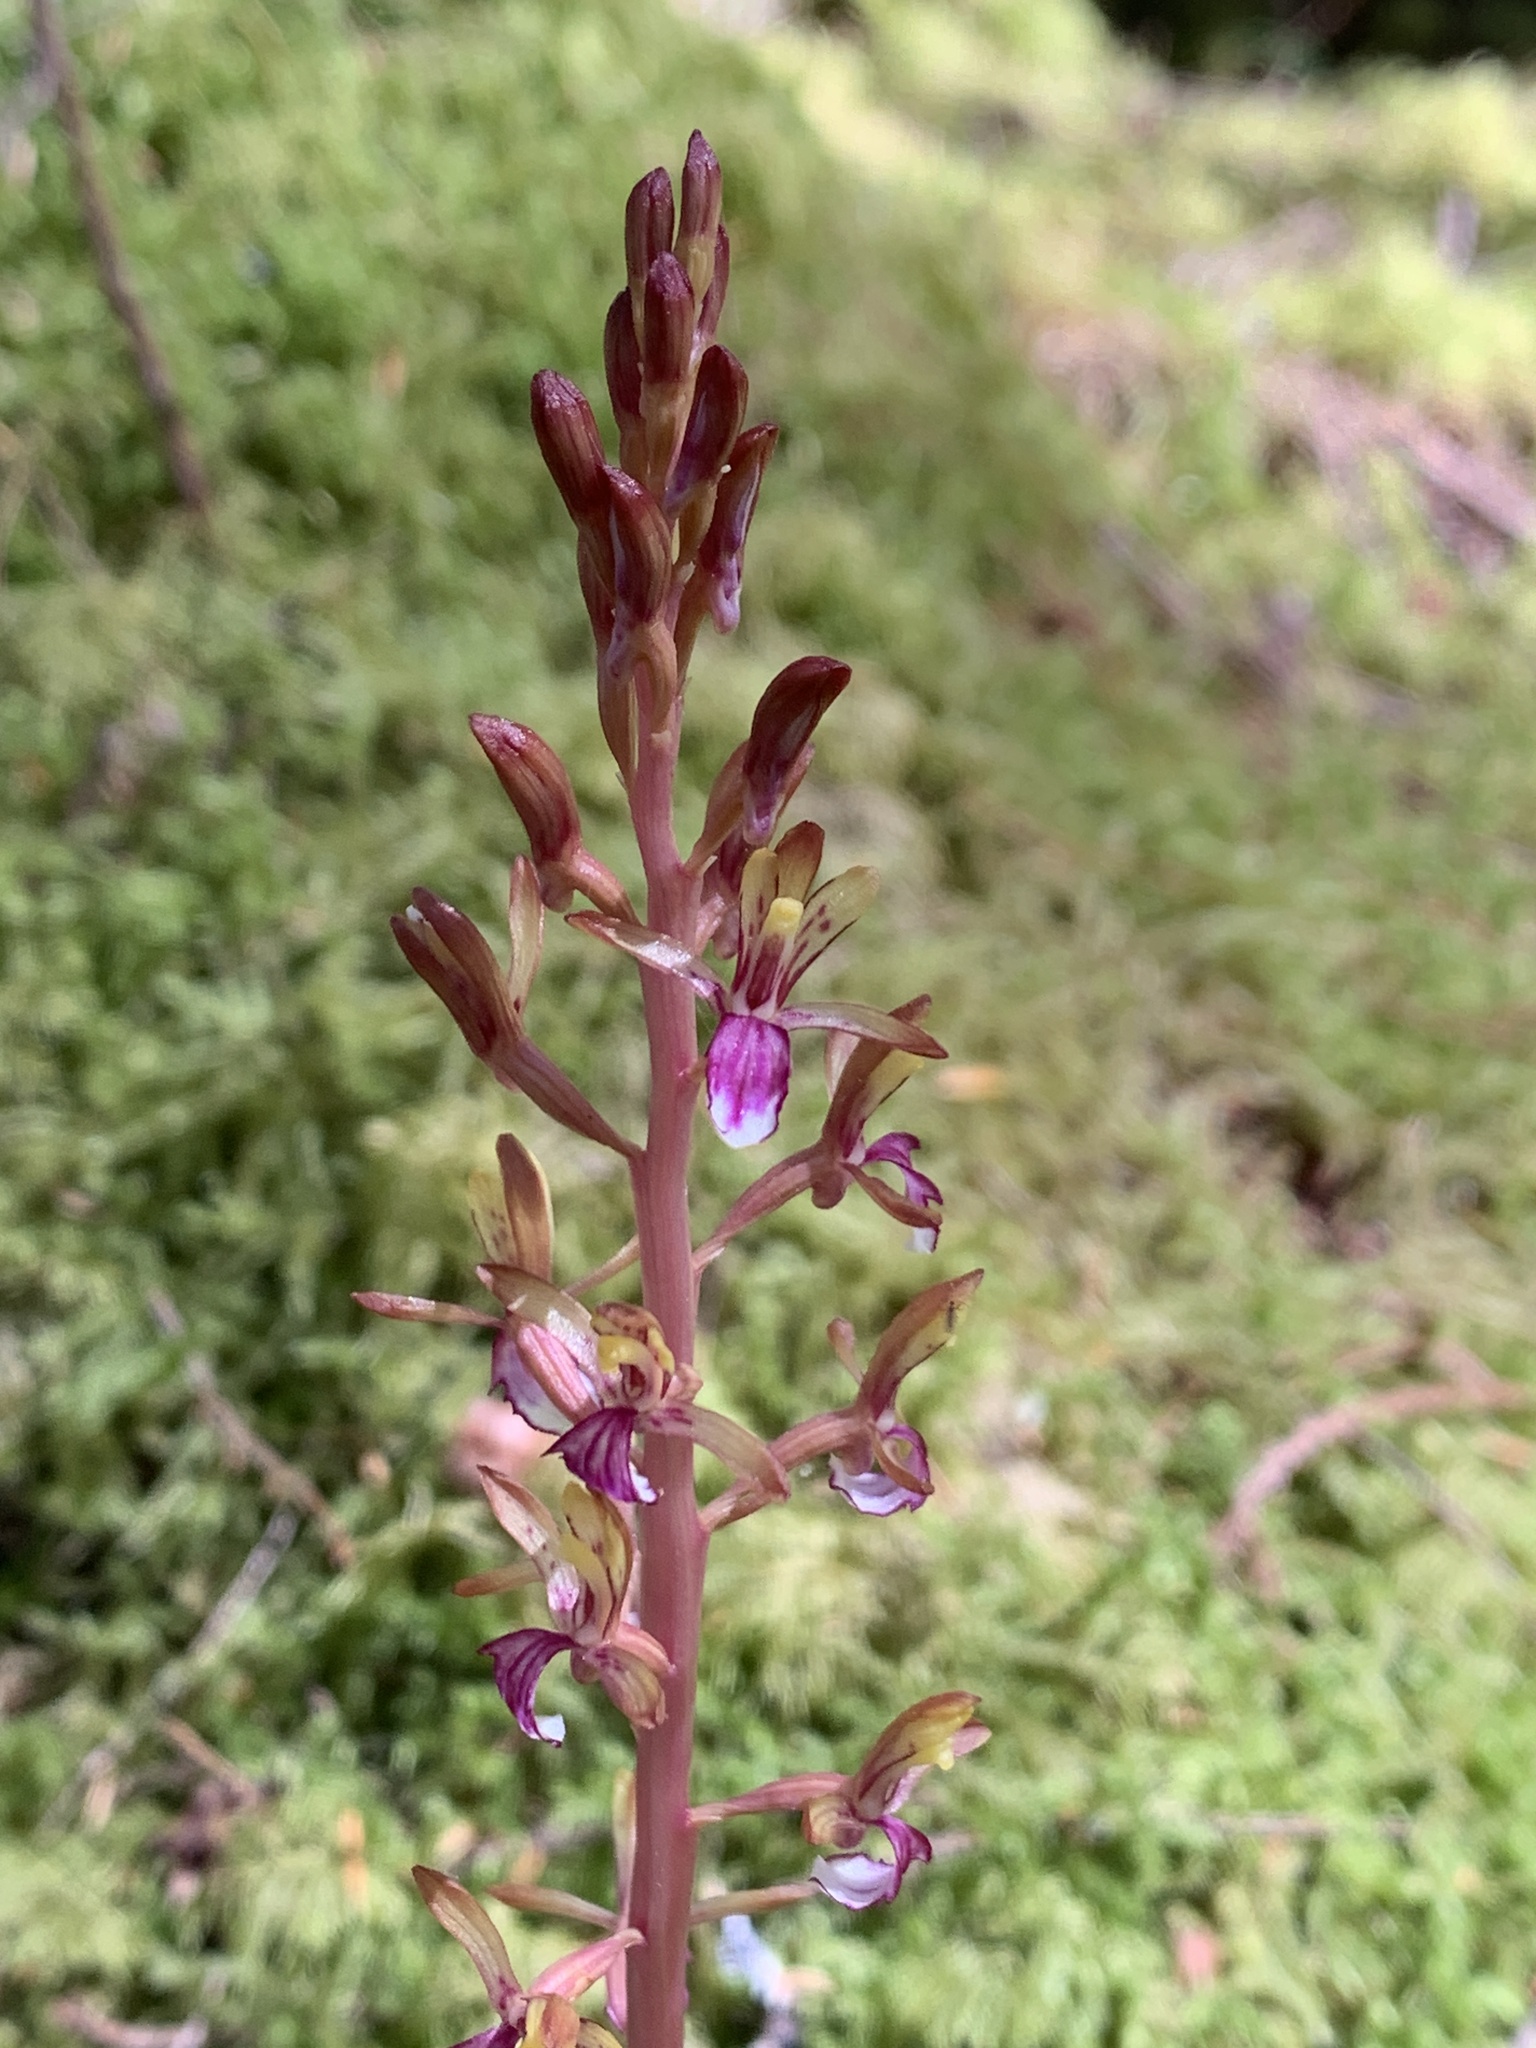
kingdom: Plantae
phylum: Tracheophyta
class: Liliopsida
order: Asparagales
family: Orchidaceae
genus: Corallorhiza
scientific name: Corallorhiza mertensiana
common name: Pacific coralroot
